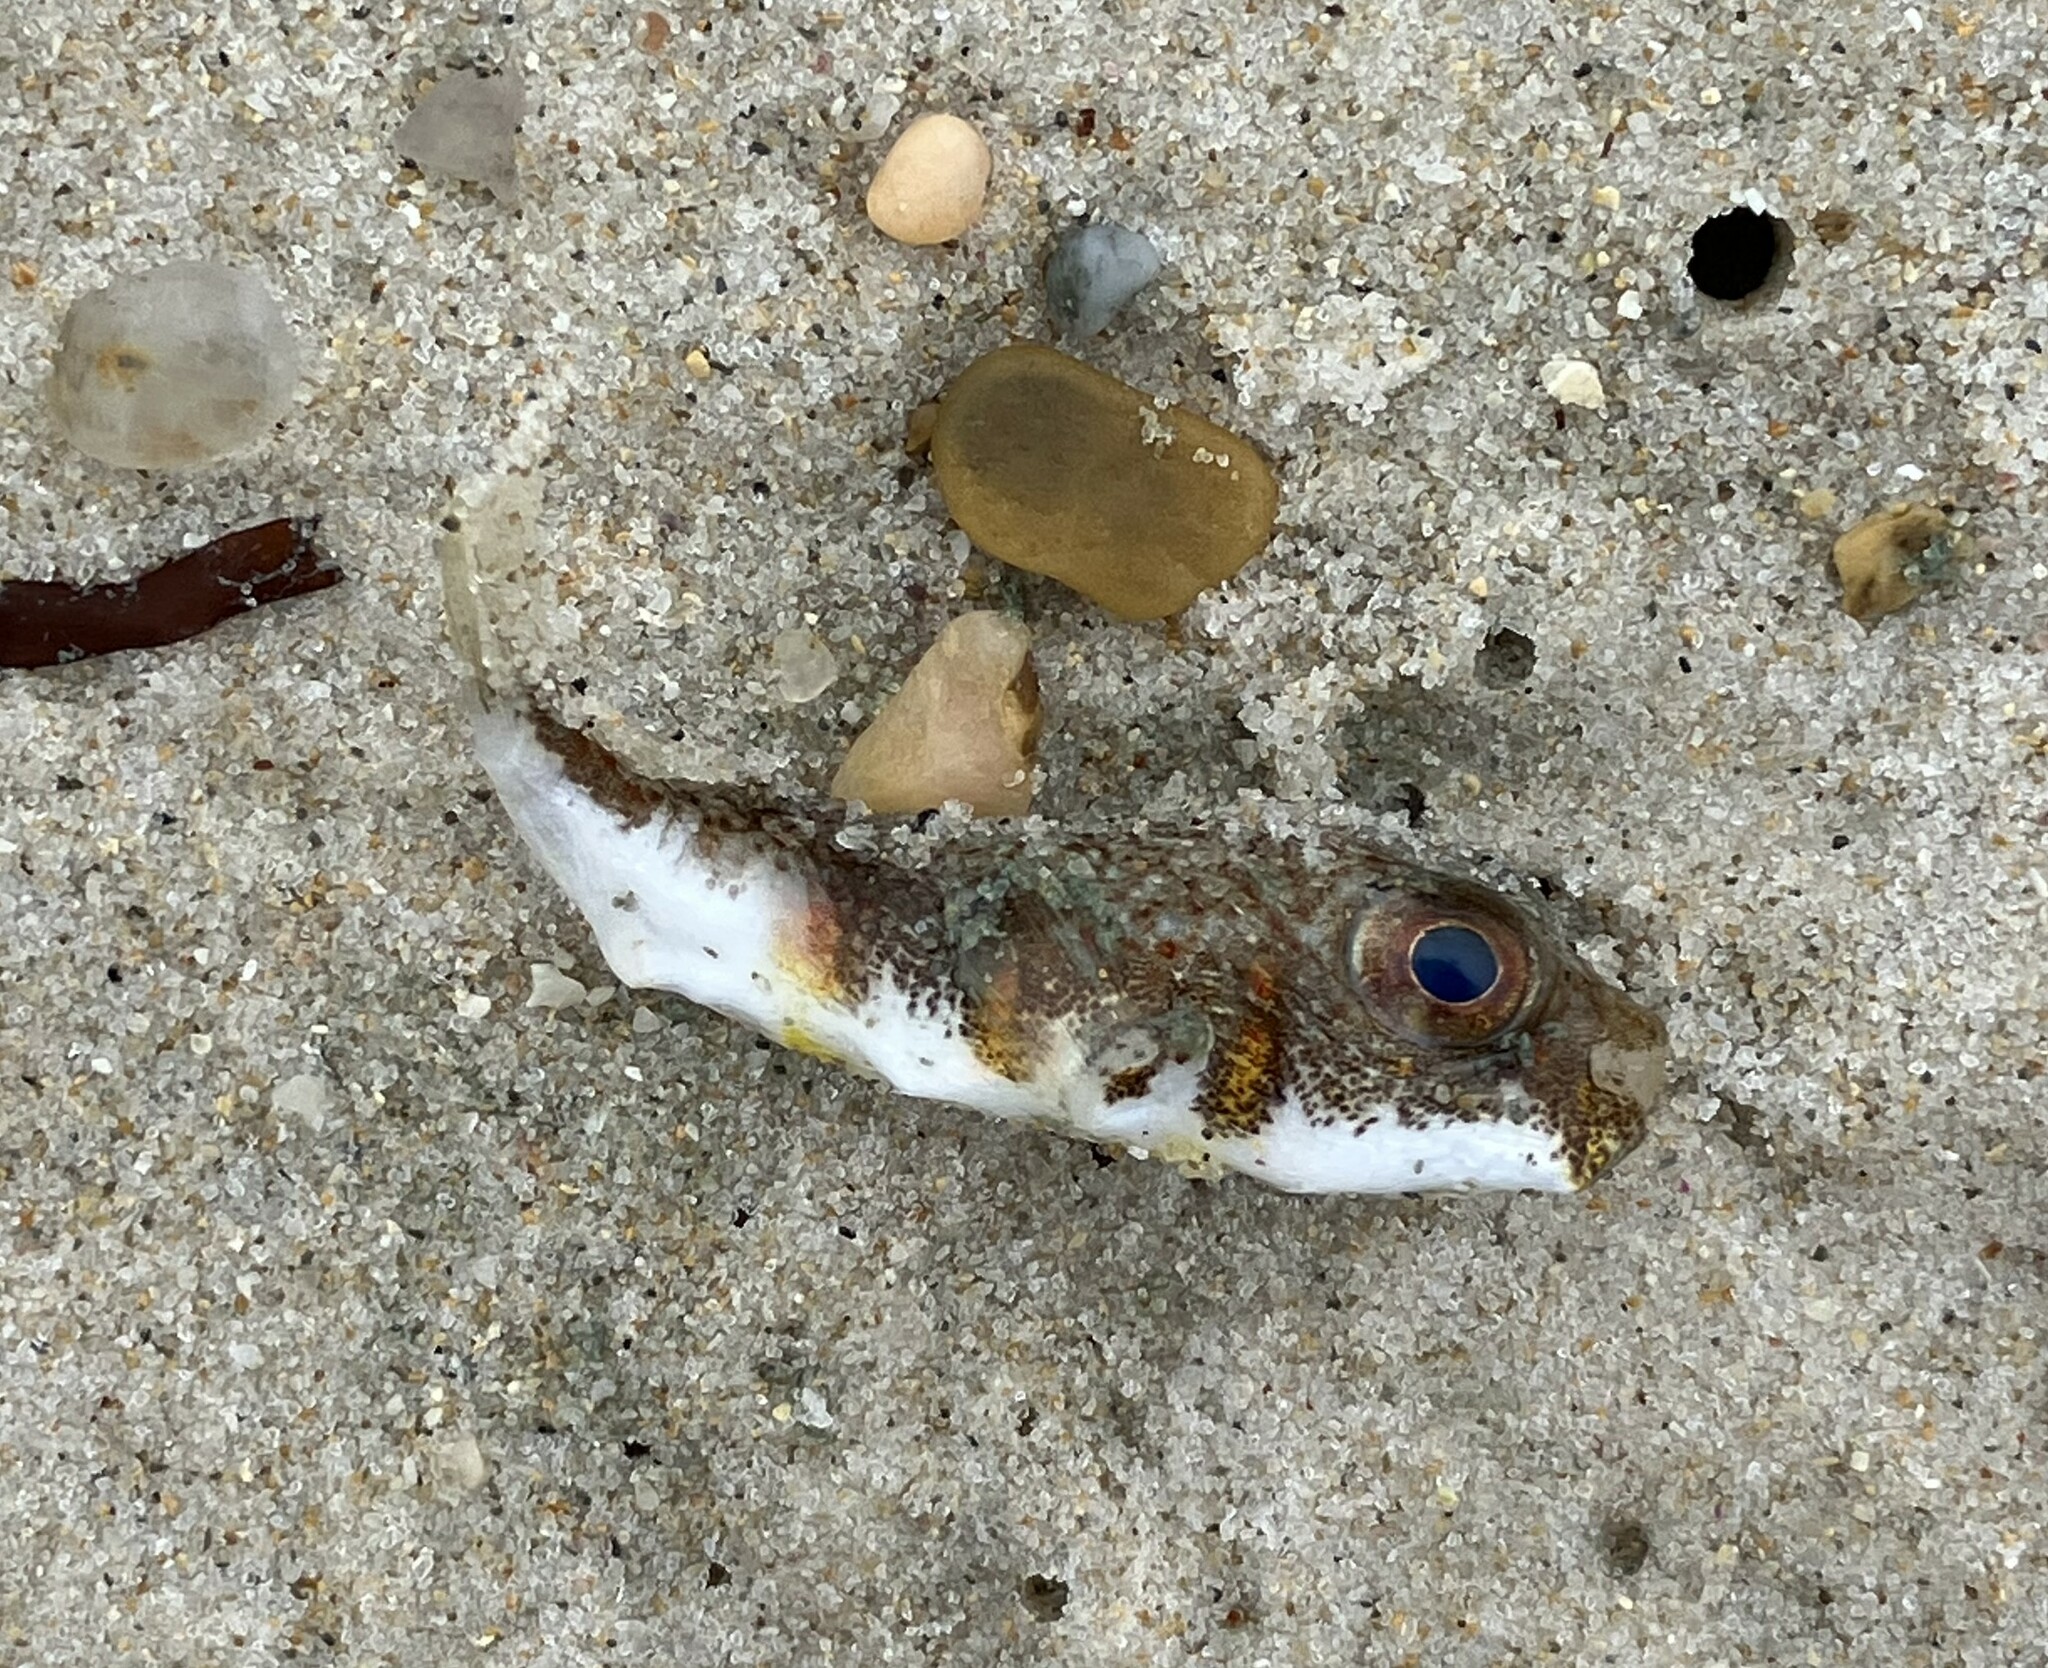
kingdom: Animalia
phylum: Chordata
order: Tetraodontiformes
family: Tetraodontidae
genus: Polyspina
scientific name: Polyspina piosae
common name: Orange-barred pufferfish
